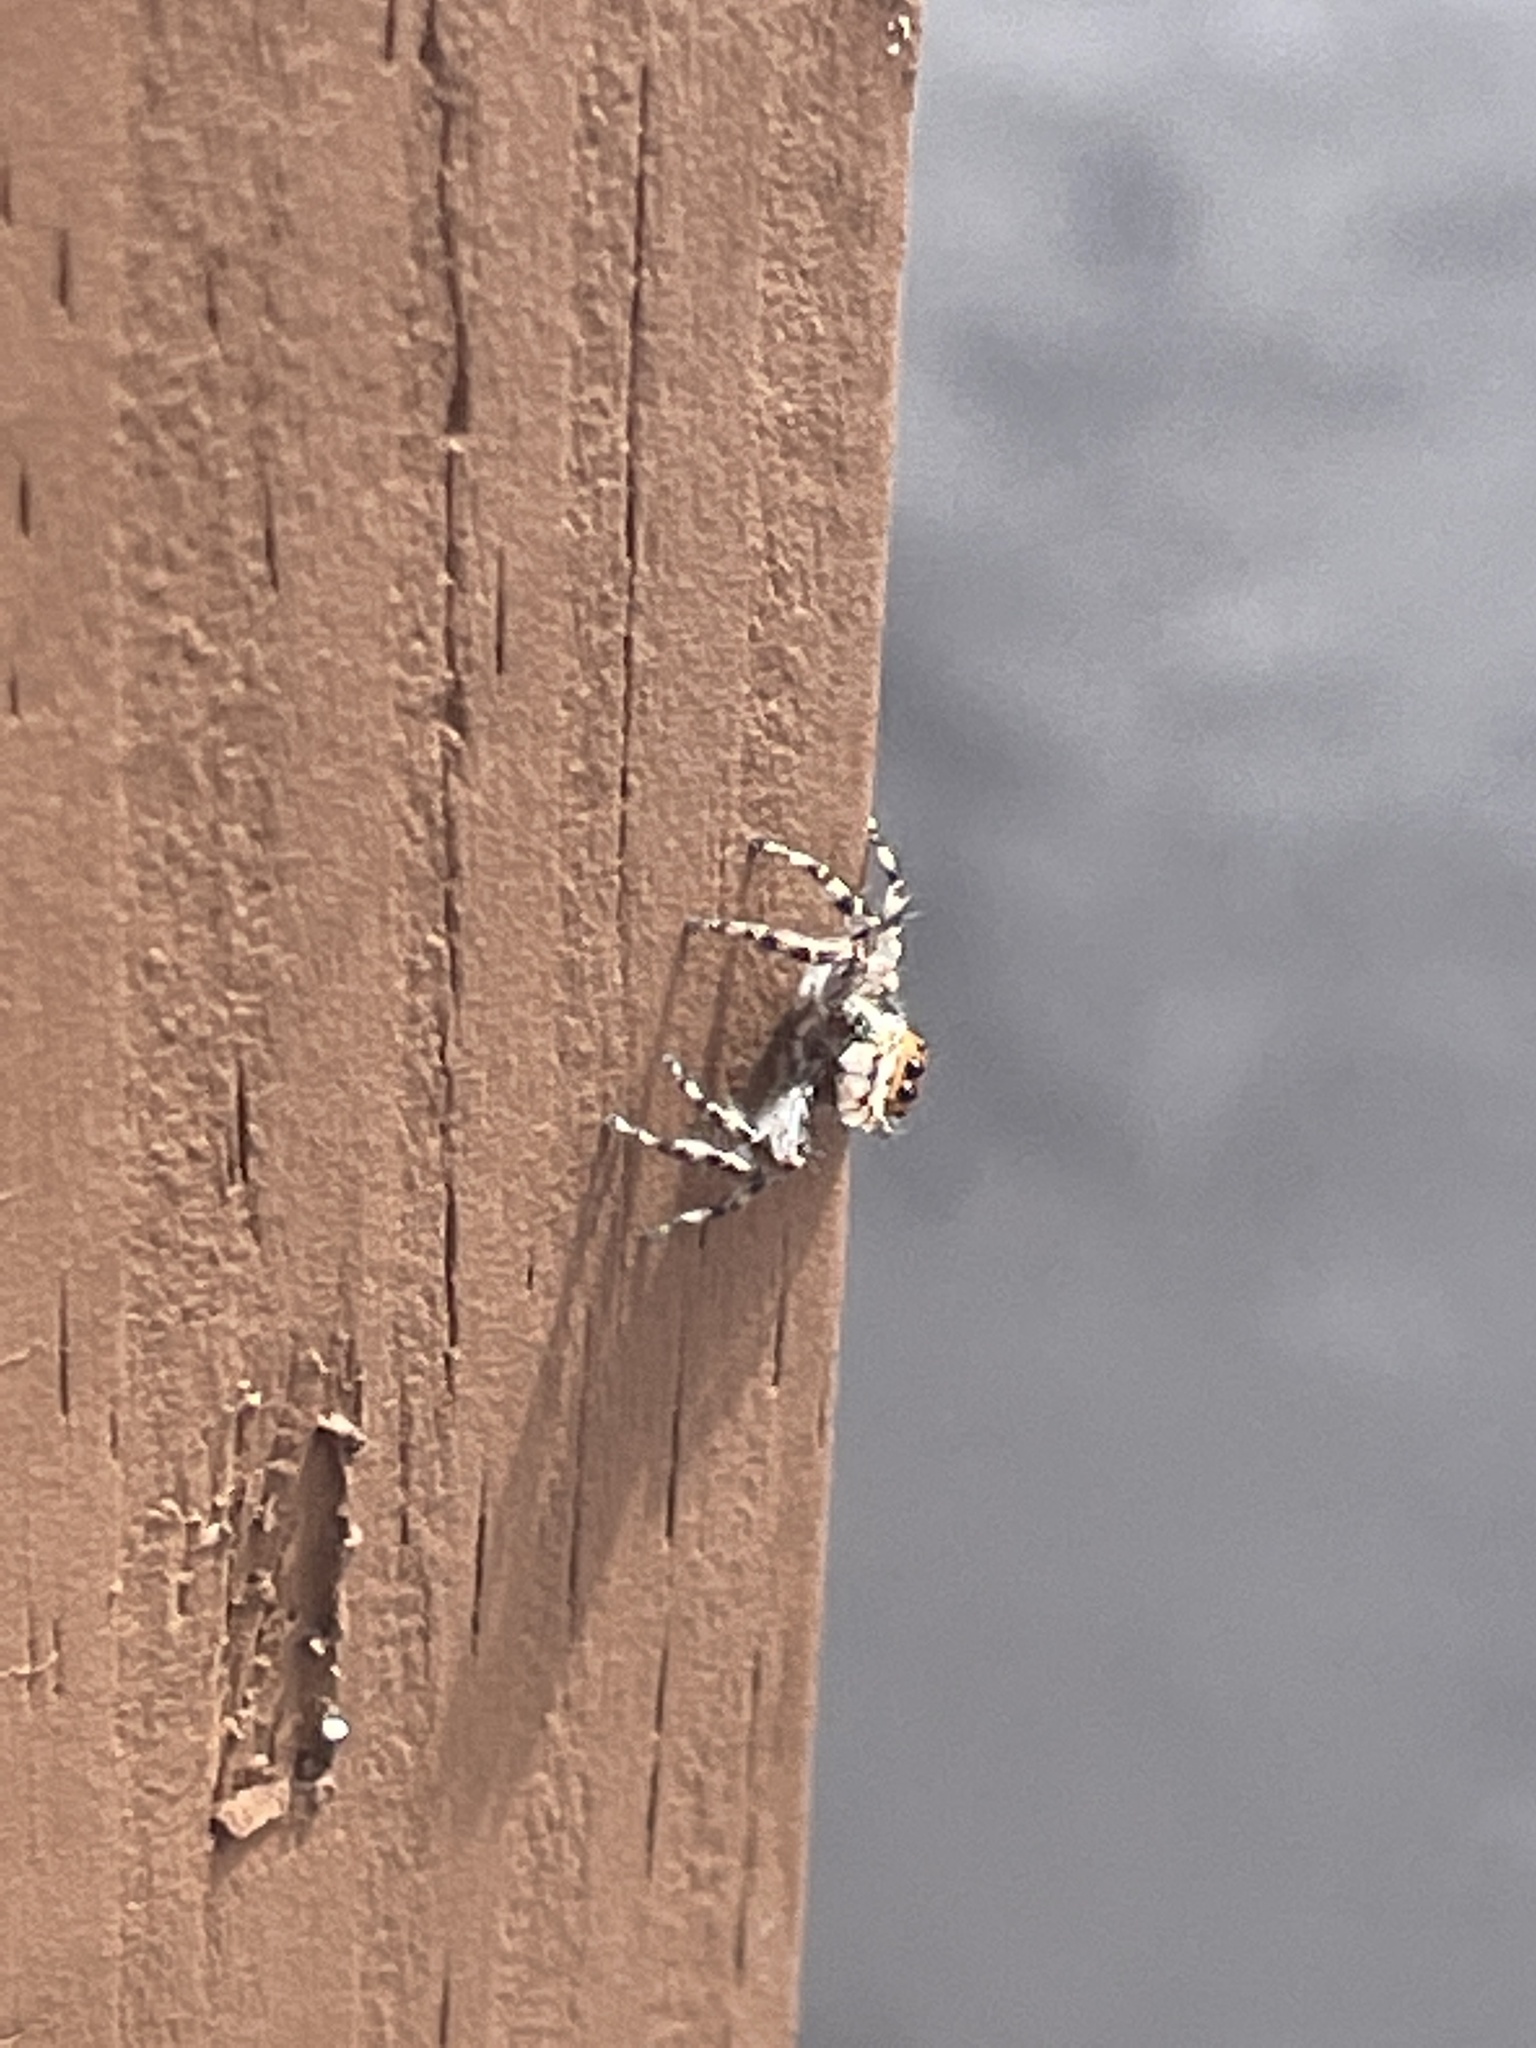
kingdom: Animalia
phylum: Arthropoda
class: Arachnida
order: Araneae
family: Salticidae
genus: Menemerus
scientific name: Menemerus bivittatus
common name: Gray wall jumper
